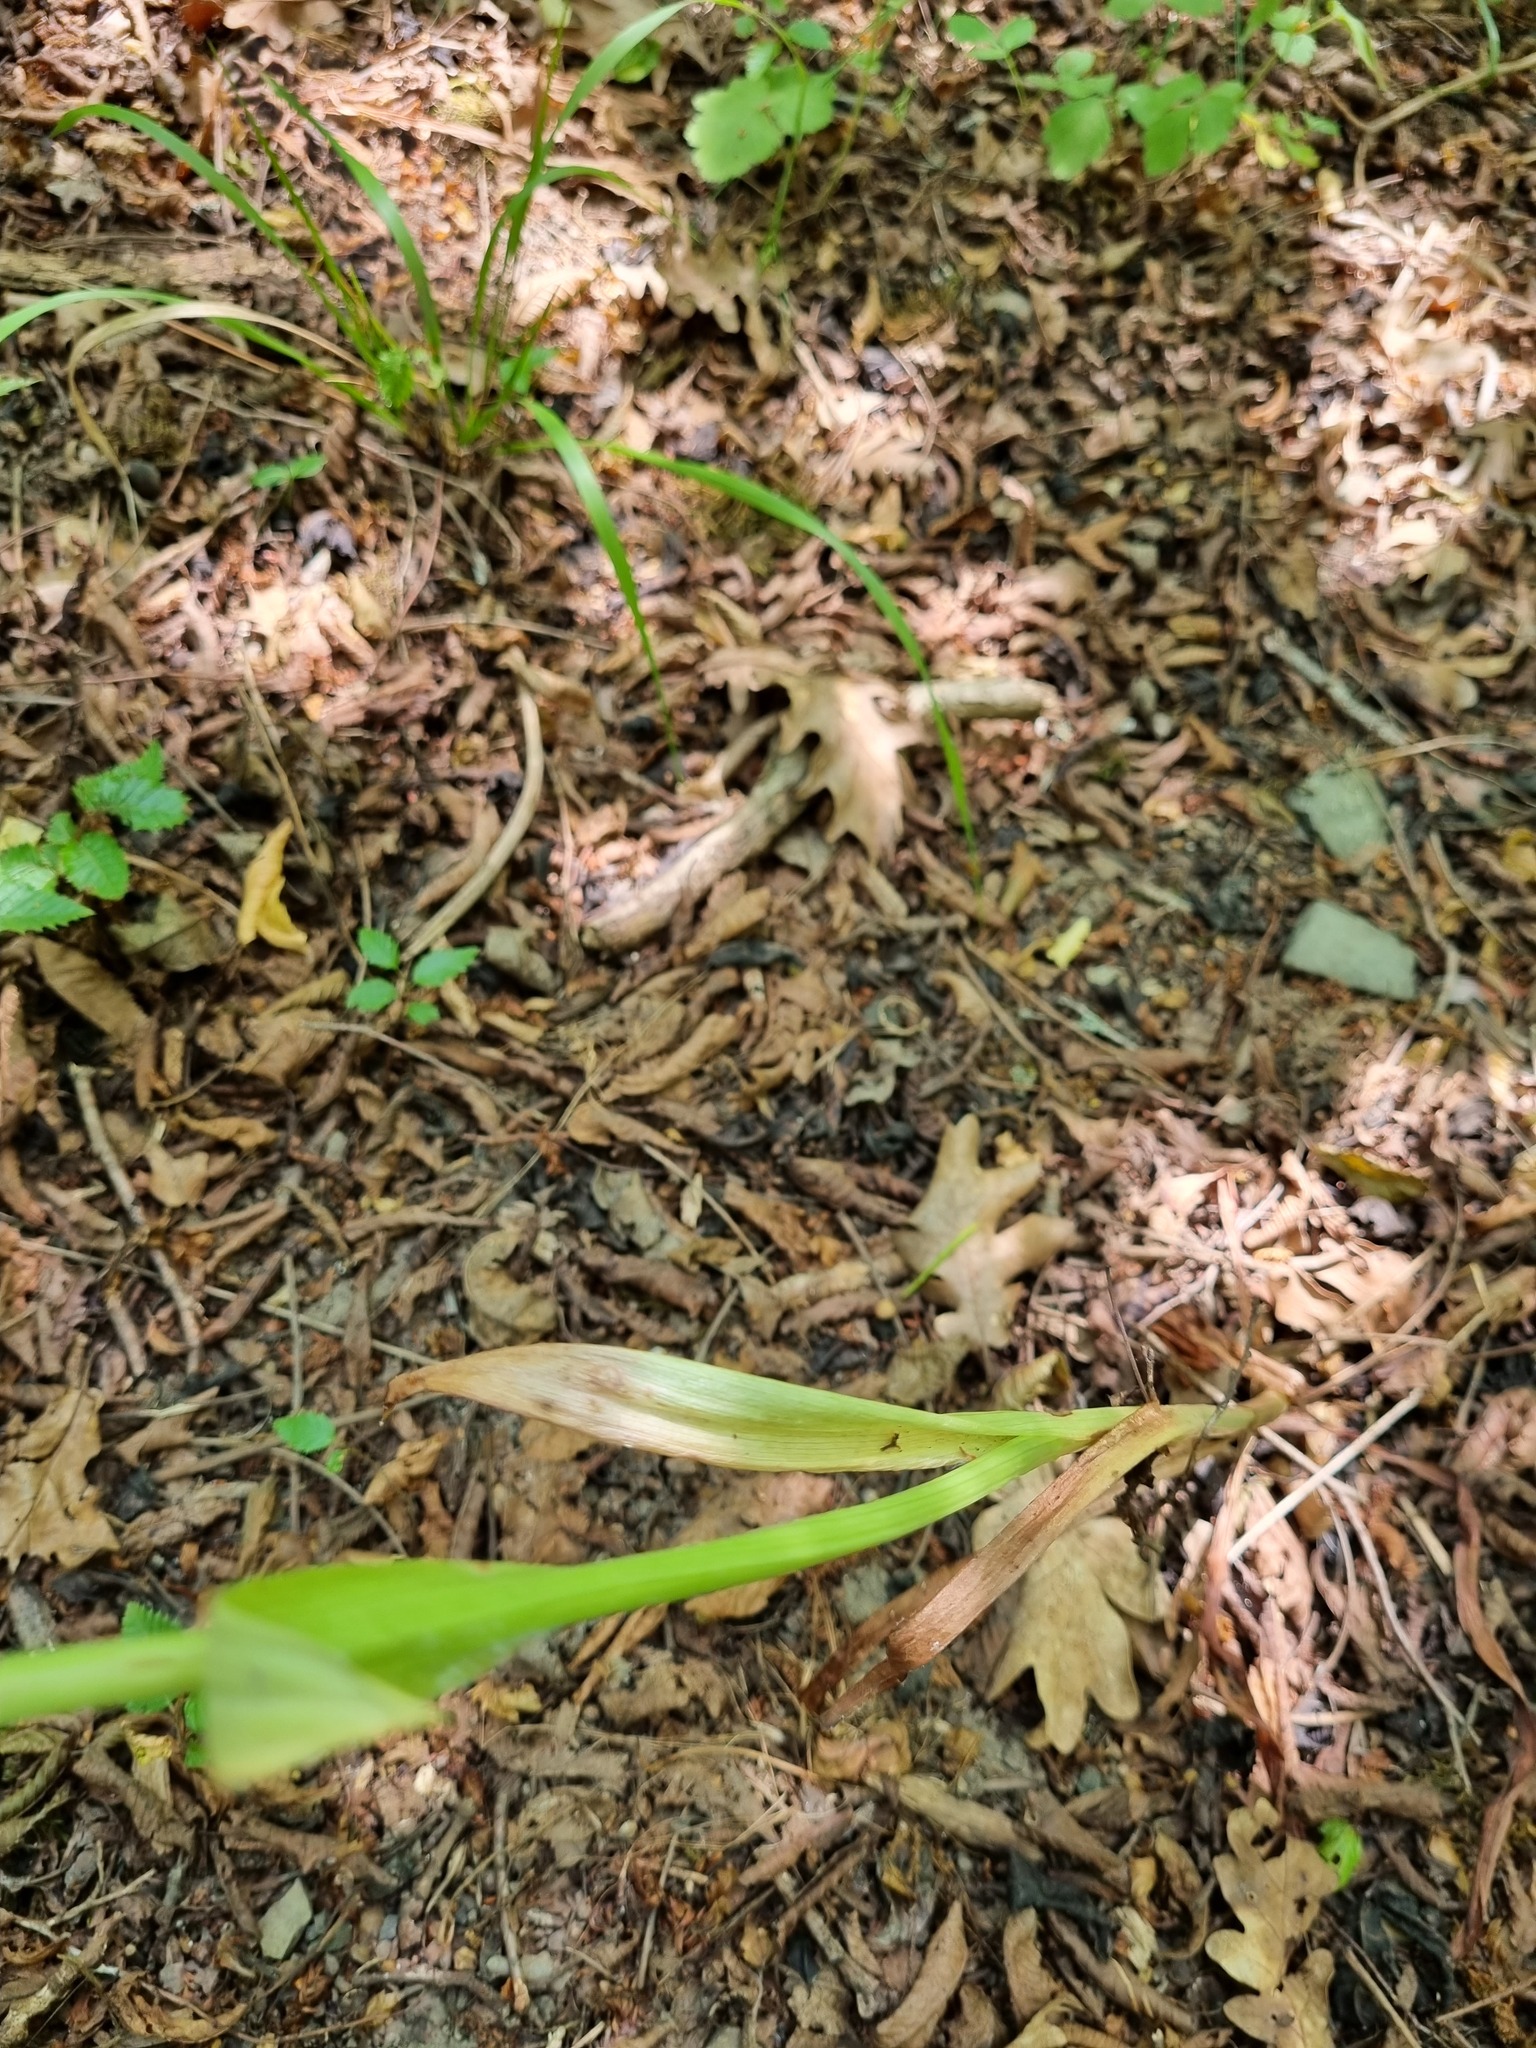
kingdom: Plantae
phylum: Tracheophyta
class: Liliopsida
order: Asparagales
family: Orchidaceae
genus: Anacamptis
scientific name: Anacamptis pyramidalis
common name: Pyramidal orchid
